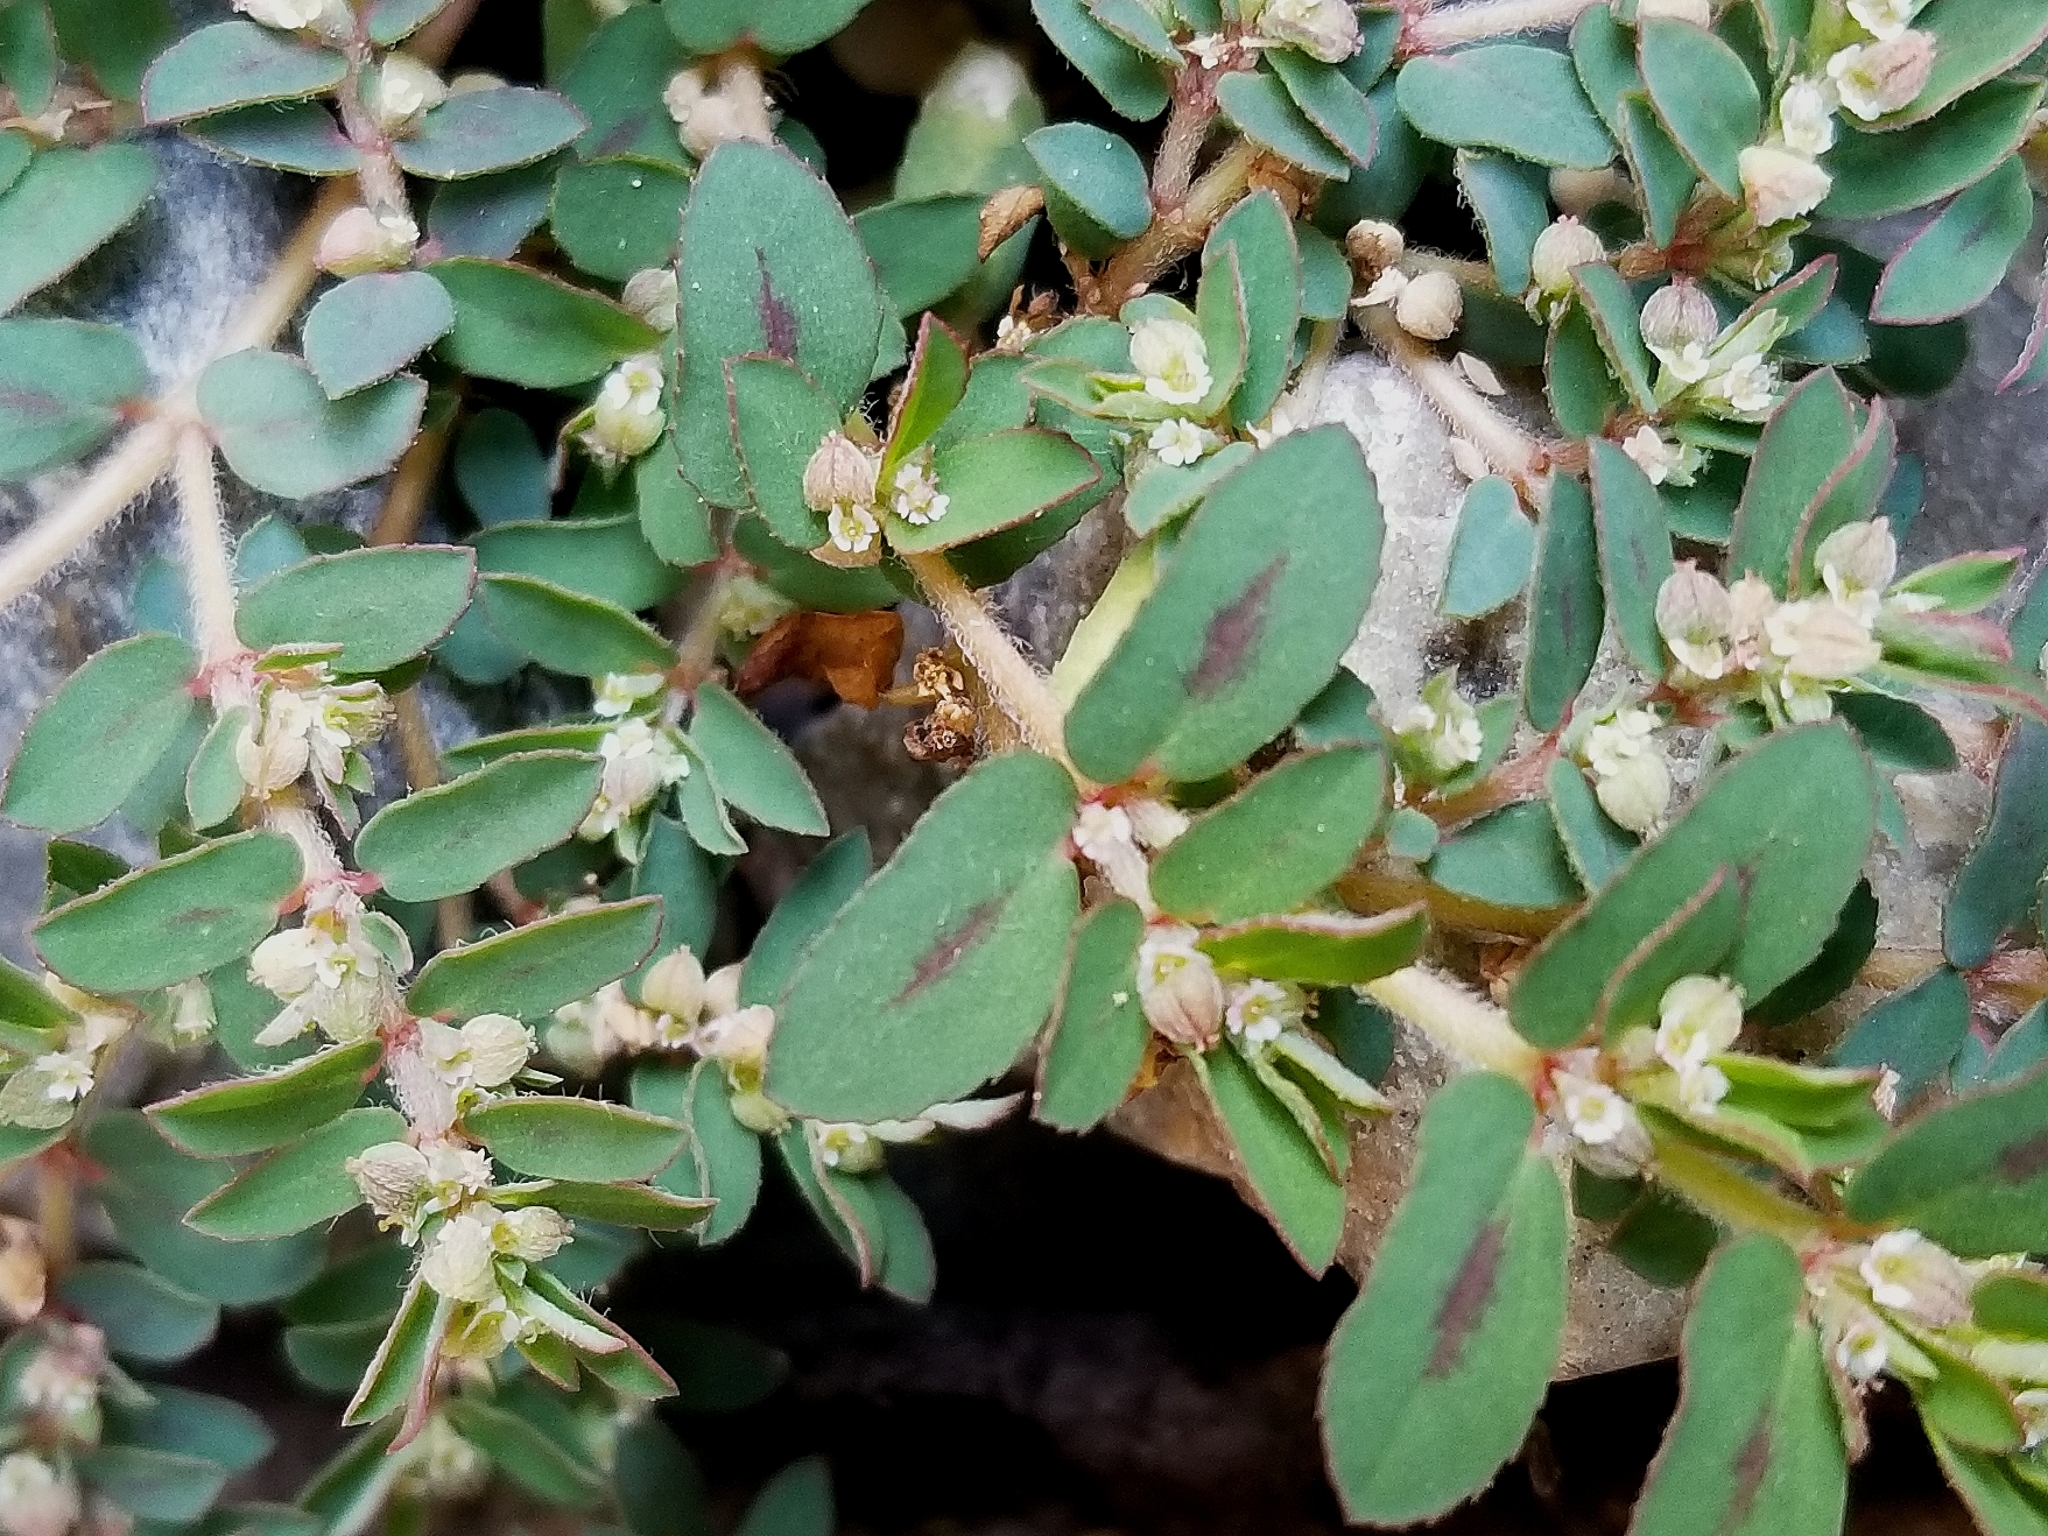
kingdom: Plantae
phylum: Tracheophyta
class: Magnoliopsida
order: Malpighiales
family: Euphorbiaceae
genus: Euphorbia
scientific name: Euphorbia maculata
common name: Spotted spurge
